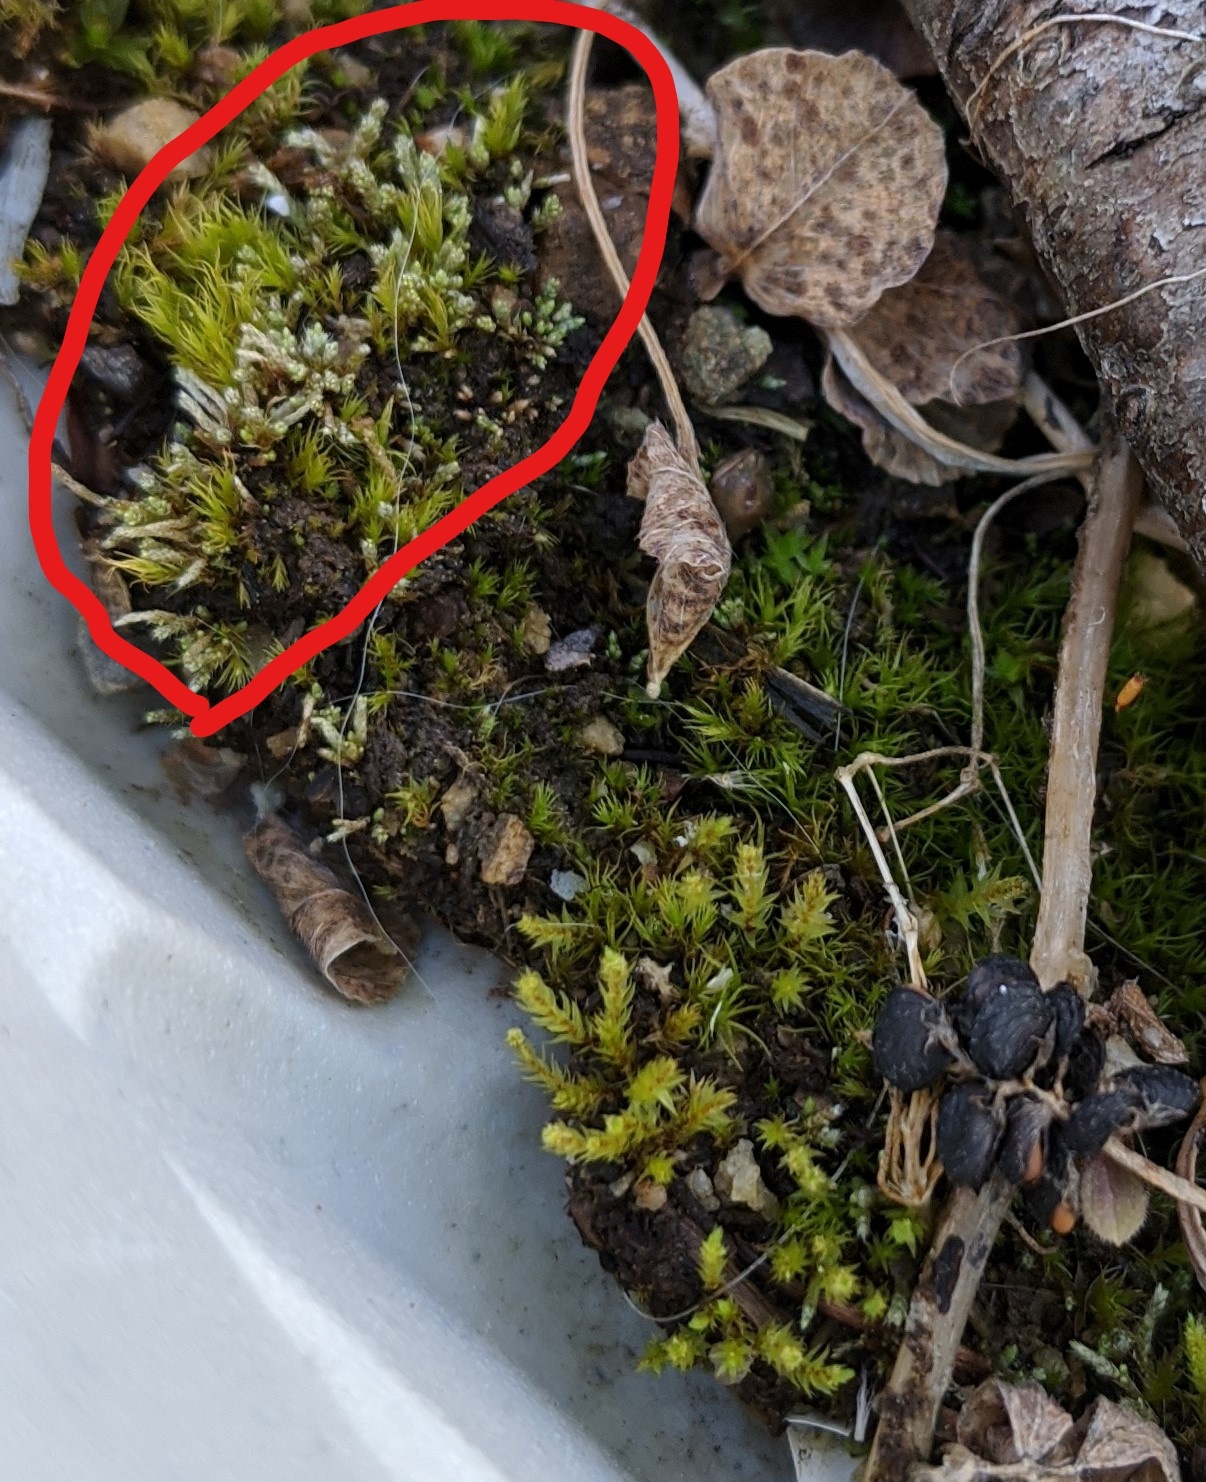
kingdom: Plantae
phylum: Bryophyta
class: Bryopsida
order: Bryales
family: Bryaceae
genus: Bryum
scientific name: Bryum argenteum
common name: Silver-moss
